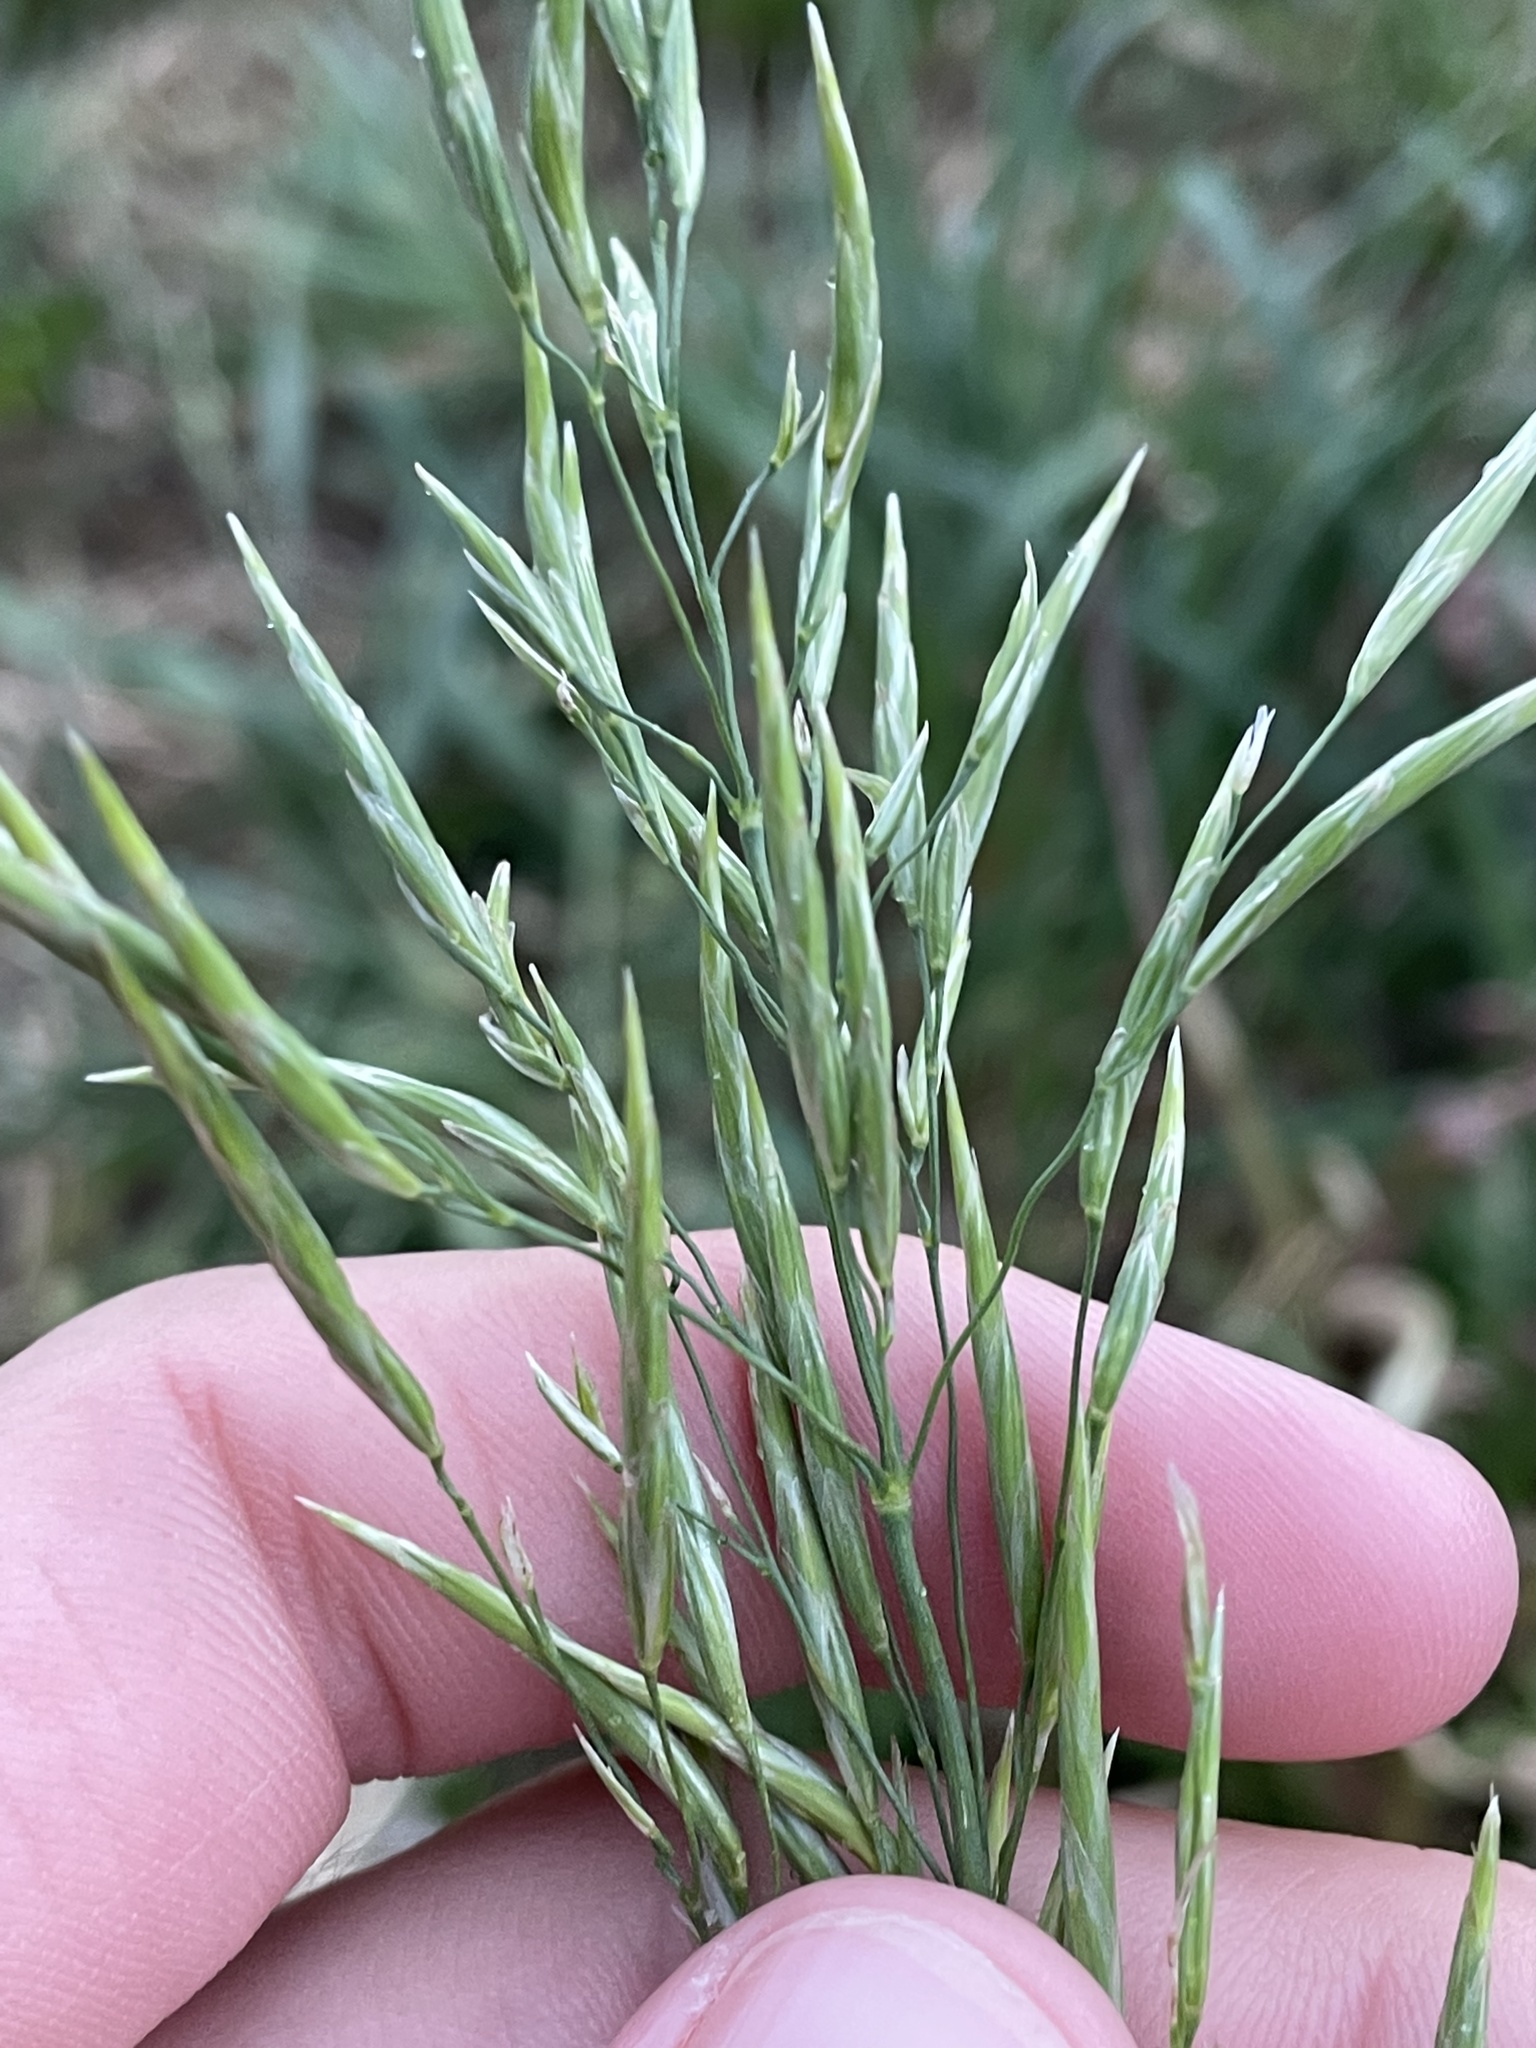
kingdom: Plantae
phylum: Tracheophyta
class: Liliopsida
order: Poales
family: Poaceae
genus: Bromus
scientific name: Bromus inermis
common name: Smooth brome
